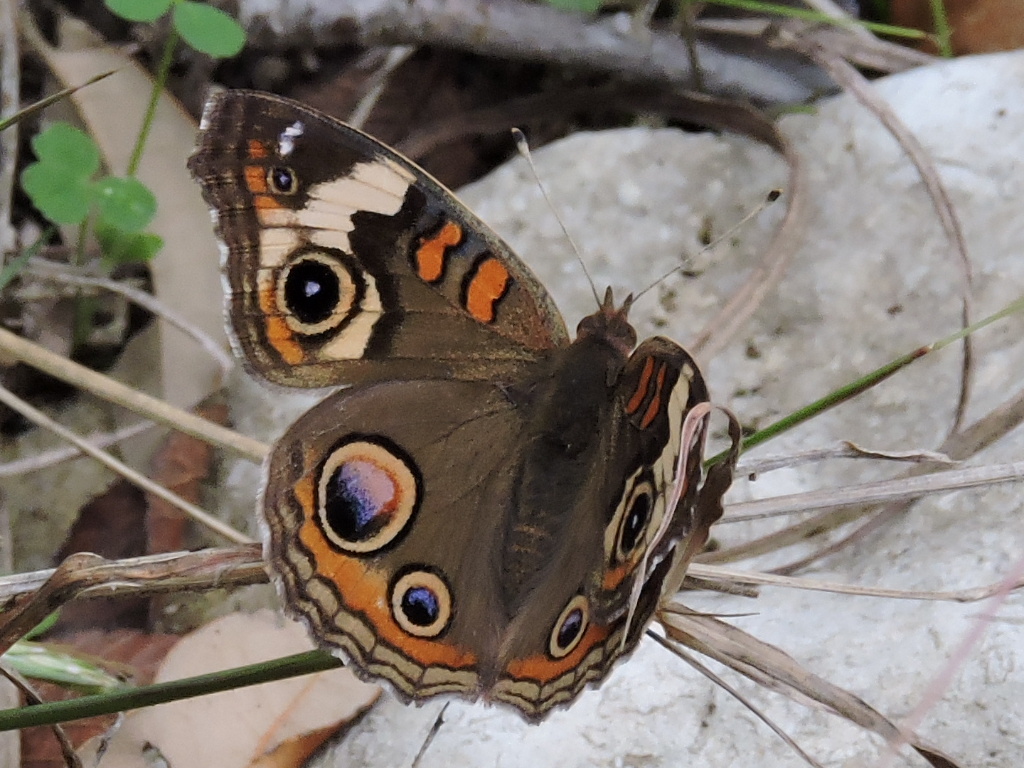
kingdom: Animalia
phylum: Arthropoda
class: Insecta
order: Lepidoptera
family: Nymphalidae
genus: Junonia
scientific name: Junonia coenia
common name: Common buckeye
